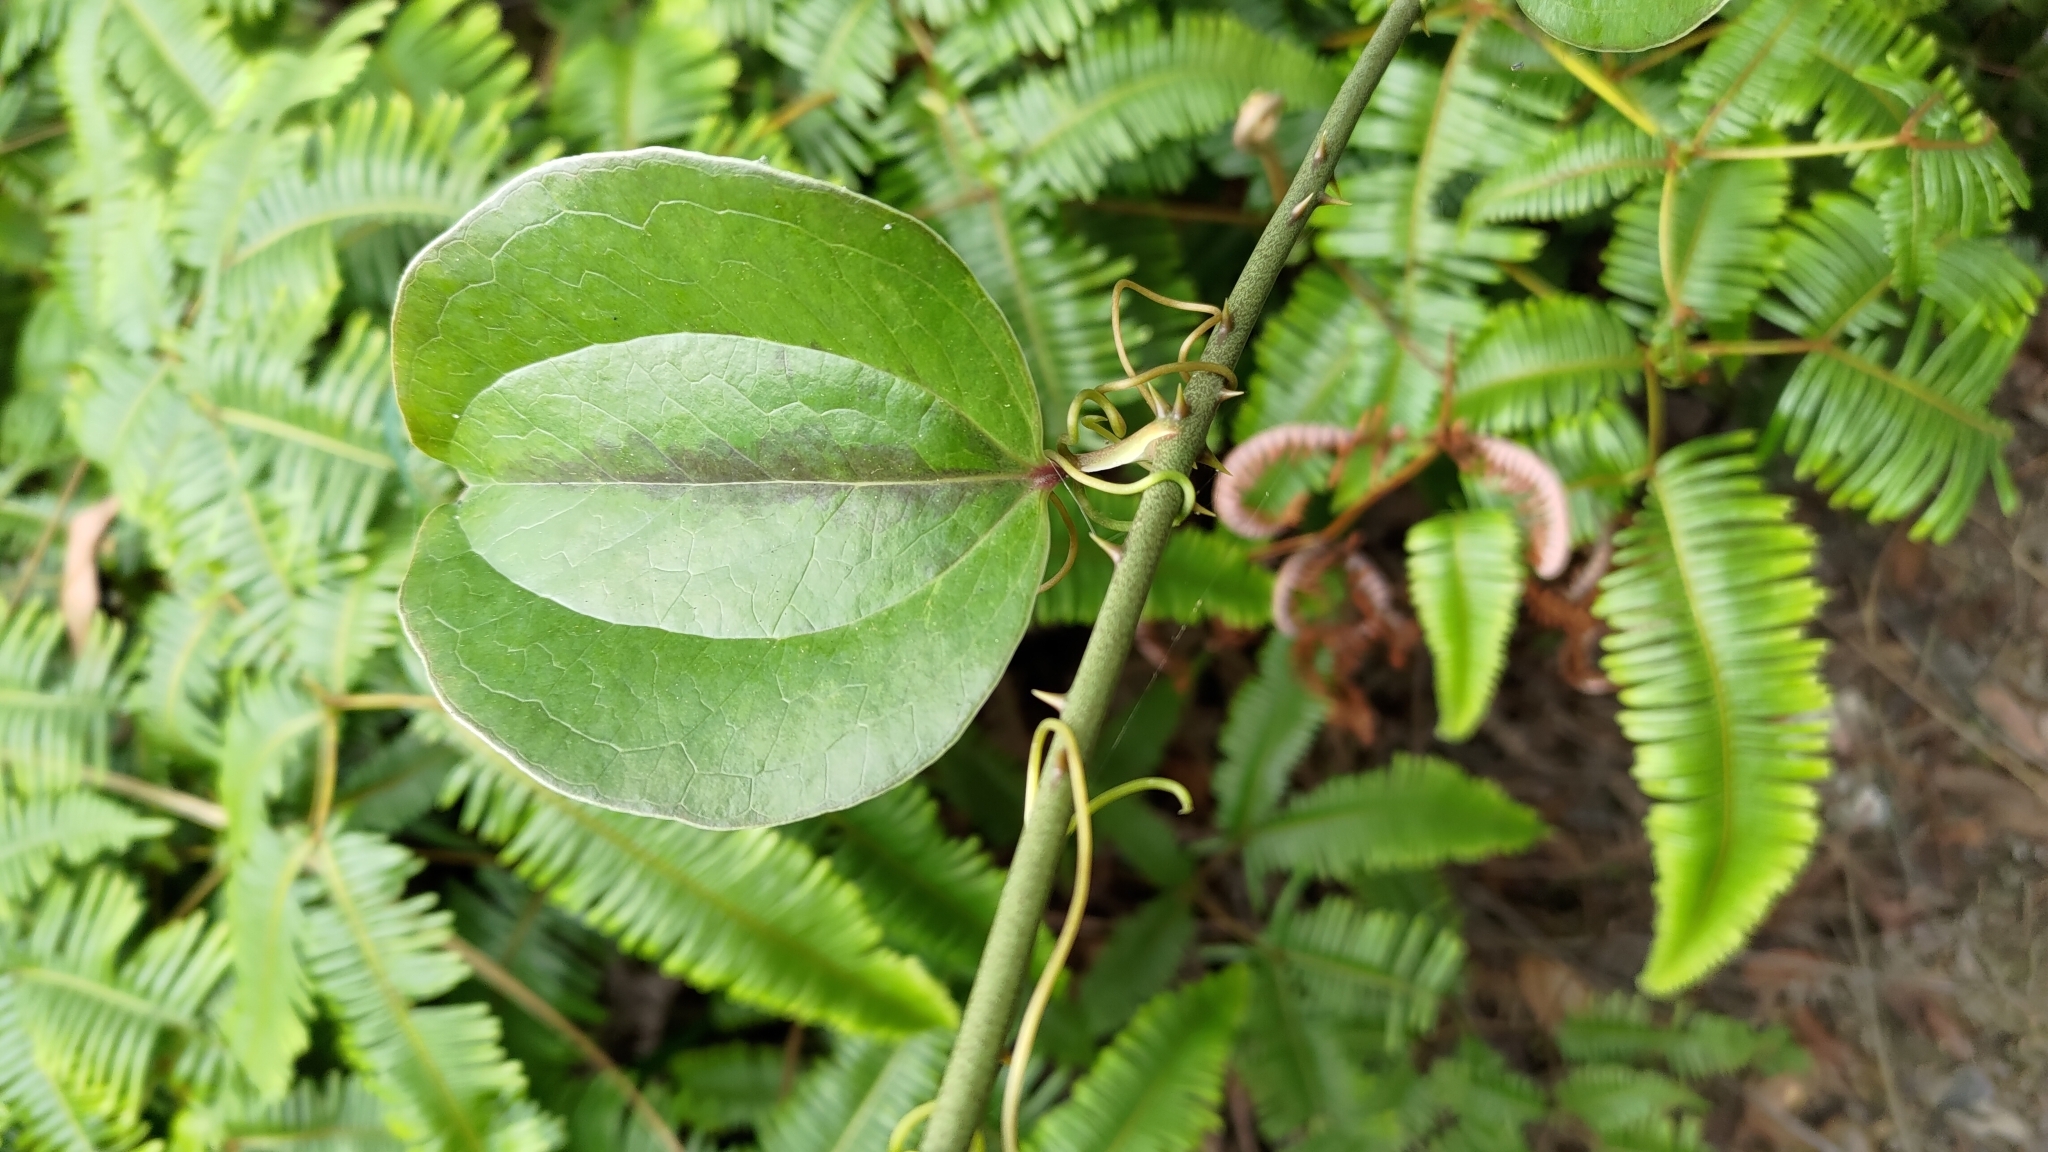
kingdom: Plantae
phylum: Tracheophyta
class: Liliopsida
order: Liliales
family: Smilacaceae
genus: Smilax
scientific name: Smilax china
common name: Chinaroot
